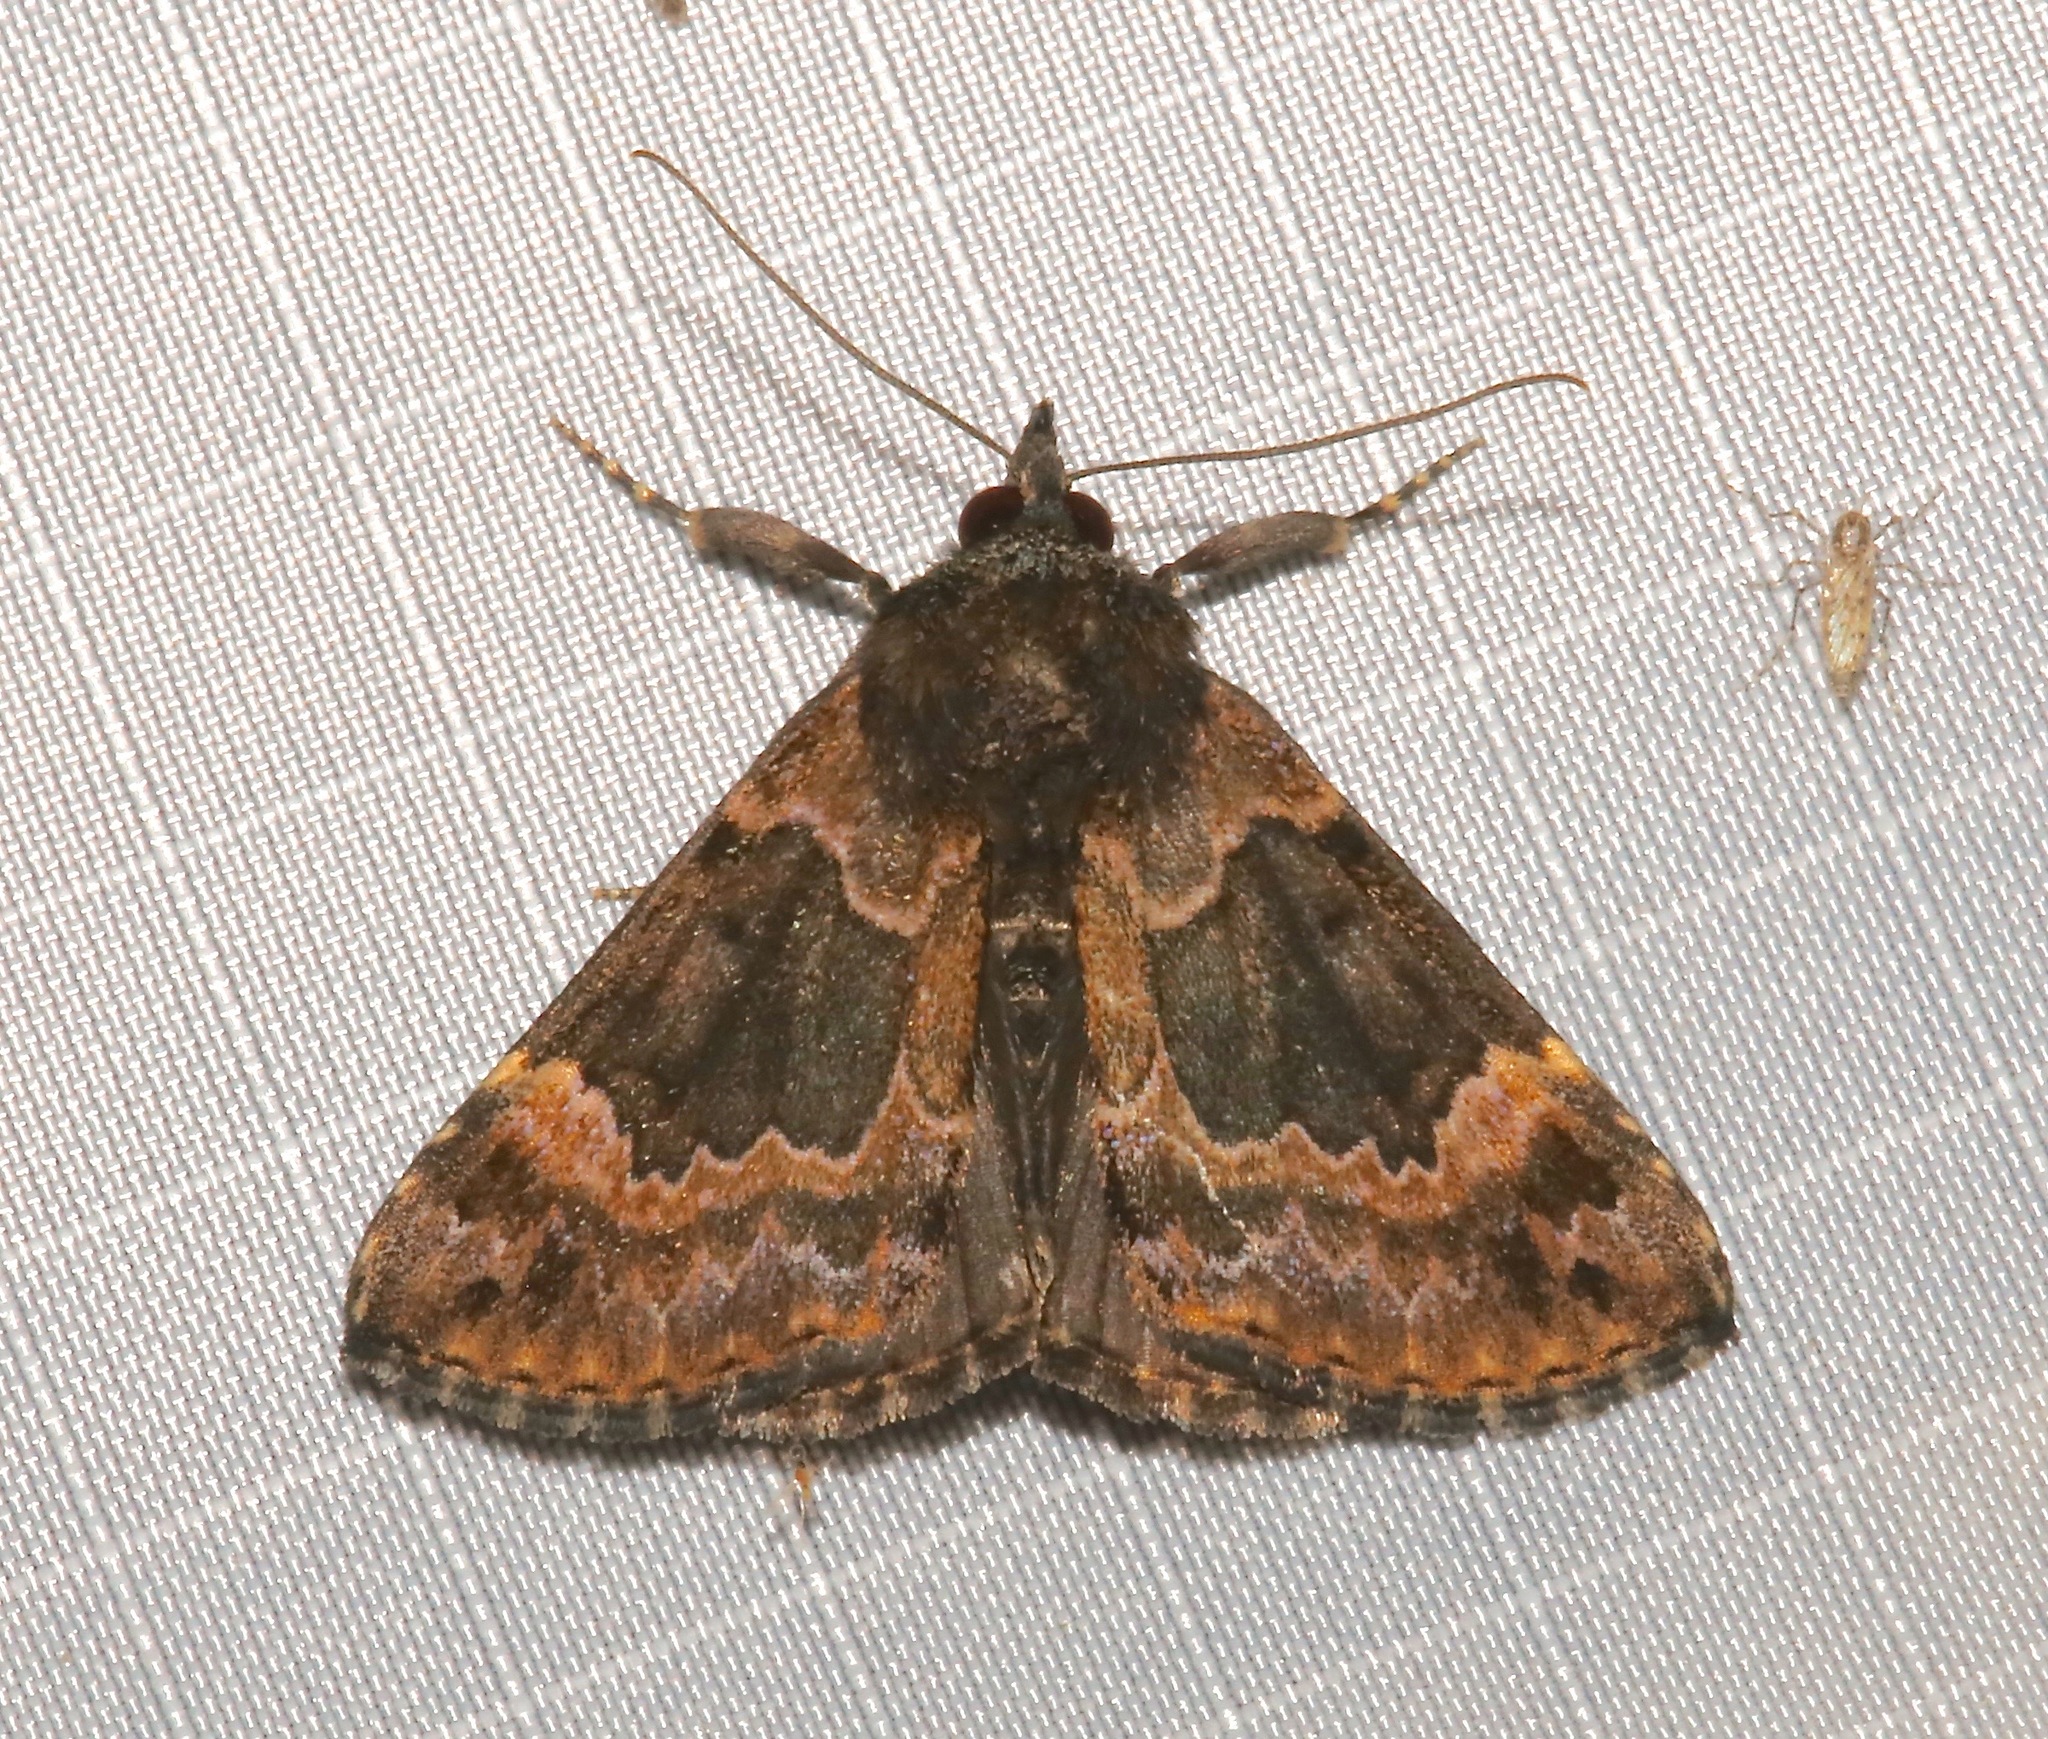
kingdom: Animalia
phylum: Arthropoda
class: Insecta
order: Lepidoptera
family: Erebidae
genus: Hypena
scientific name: Hypena palparia
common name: Mottled bomolocha moth
